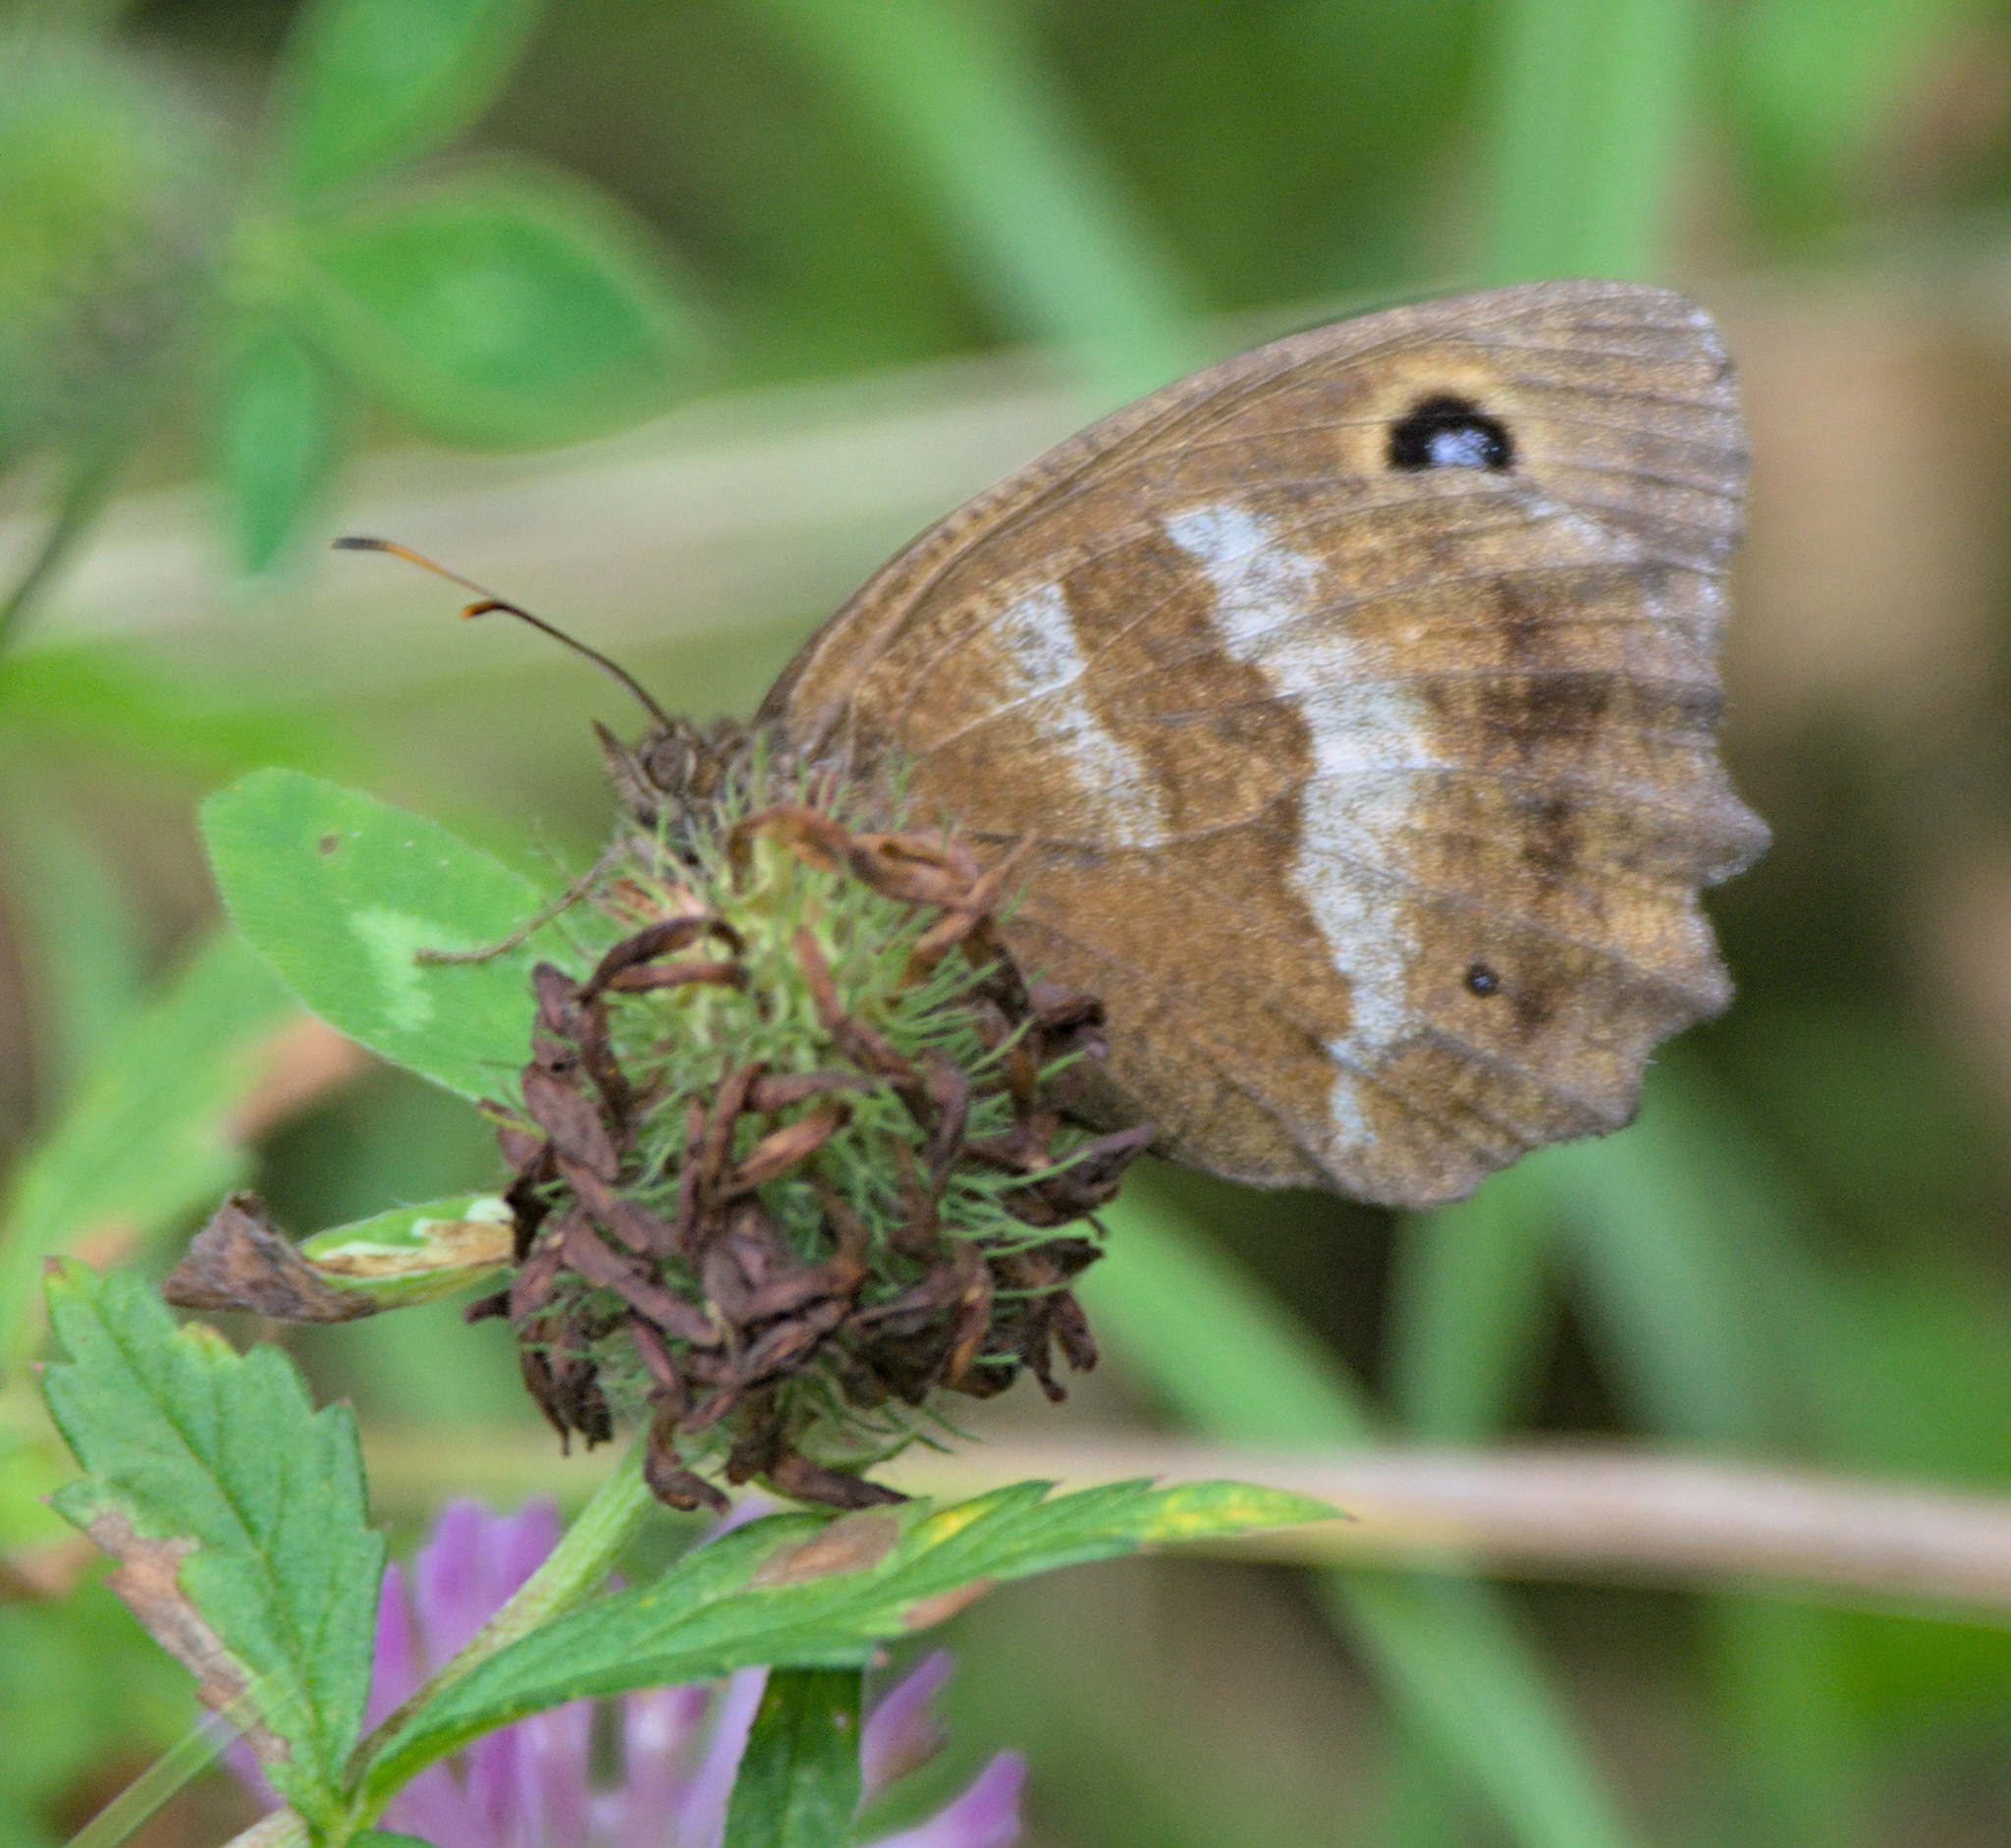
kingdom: Animalia
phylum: Arthropoda
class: Insecta
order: Lepidoptera
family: Nymphalidae
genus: Minois
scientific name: Minois dryas
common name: Dryad
